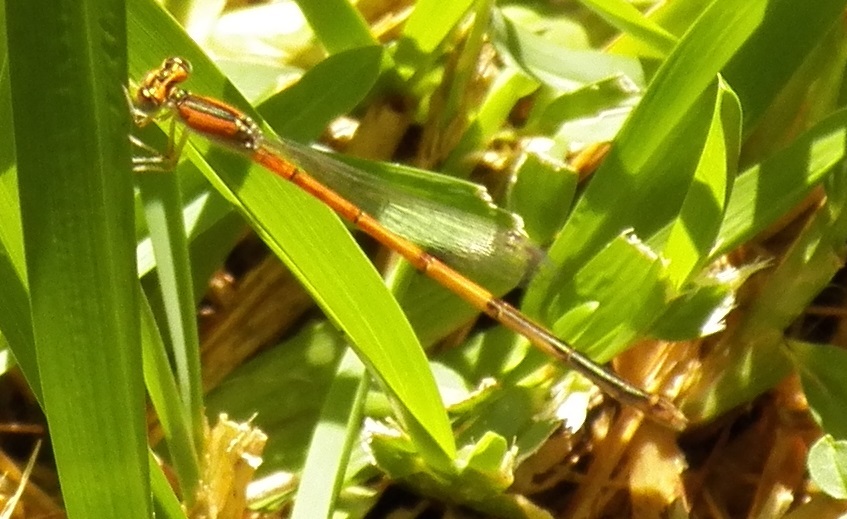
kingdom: Animalia
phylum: Arthropoda
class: Insecta
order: Odonata
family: Coenagrionidae
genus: Ischnura
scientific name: Ischnura hastata
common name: Citrine forktail
